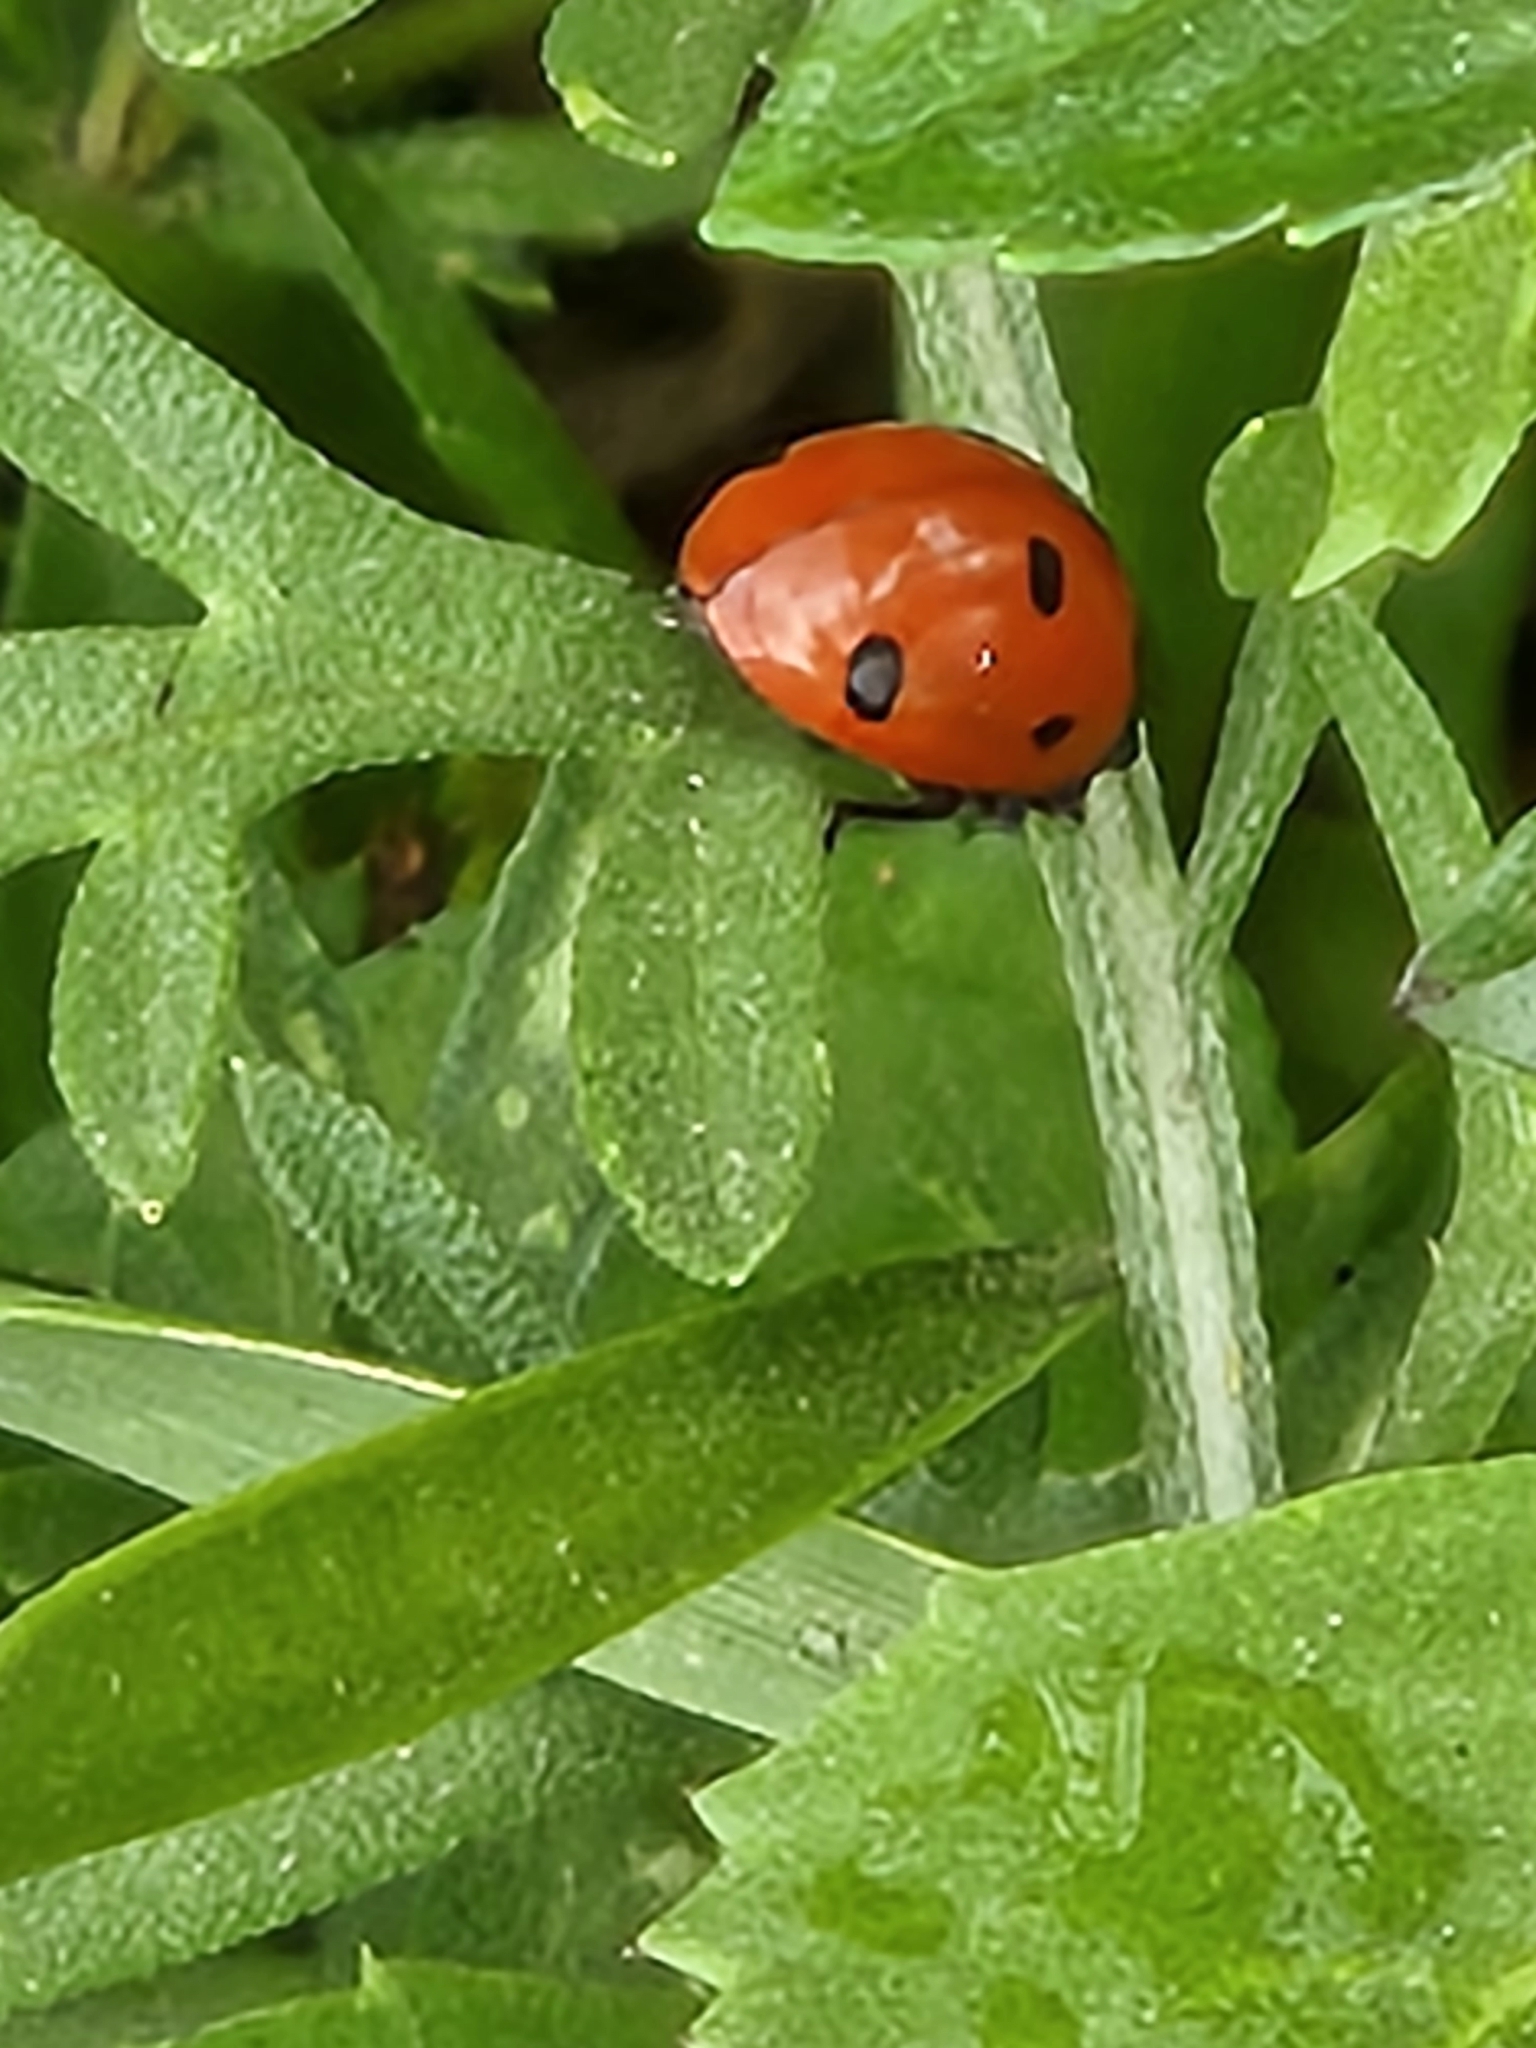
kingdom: Animalia
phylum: Arthropoda
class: Insecta
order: Coleoptera
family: Coccinellidae
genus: Coccinella
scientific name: Coccinella septempunctata
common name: Sevenspotted lady beetle
